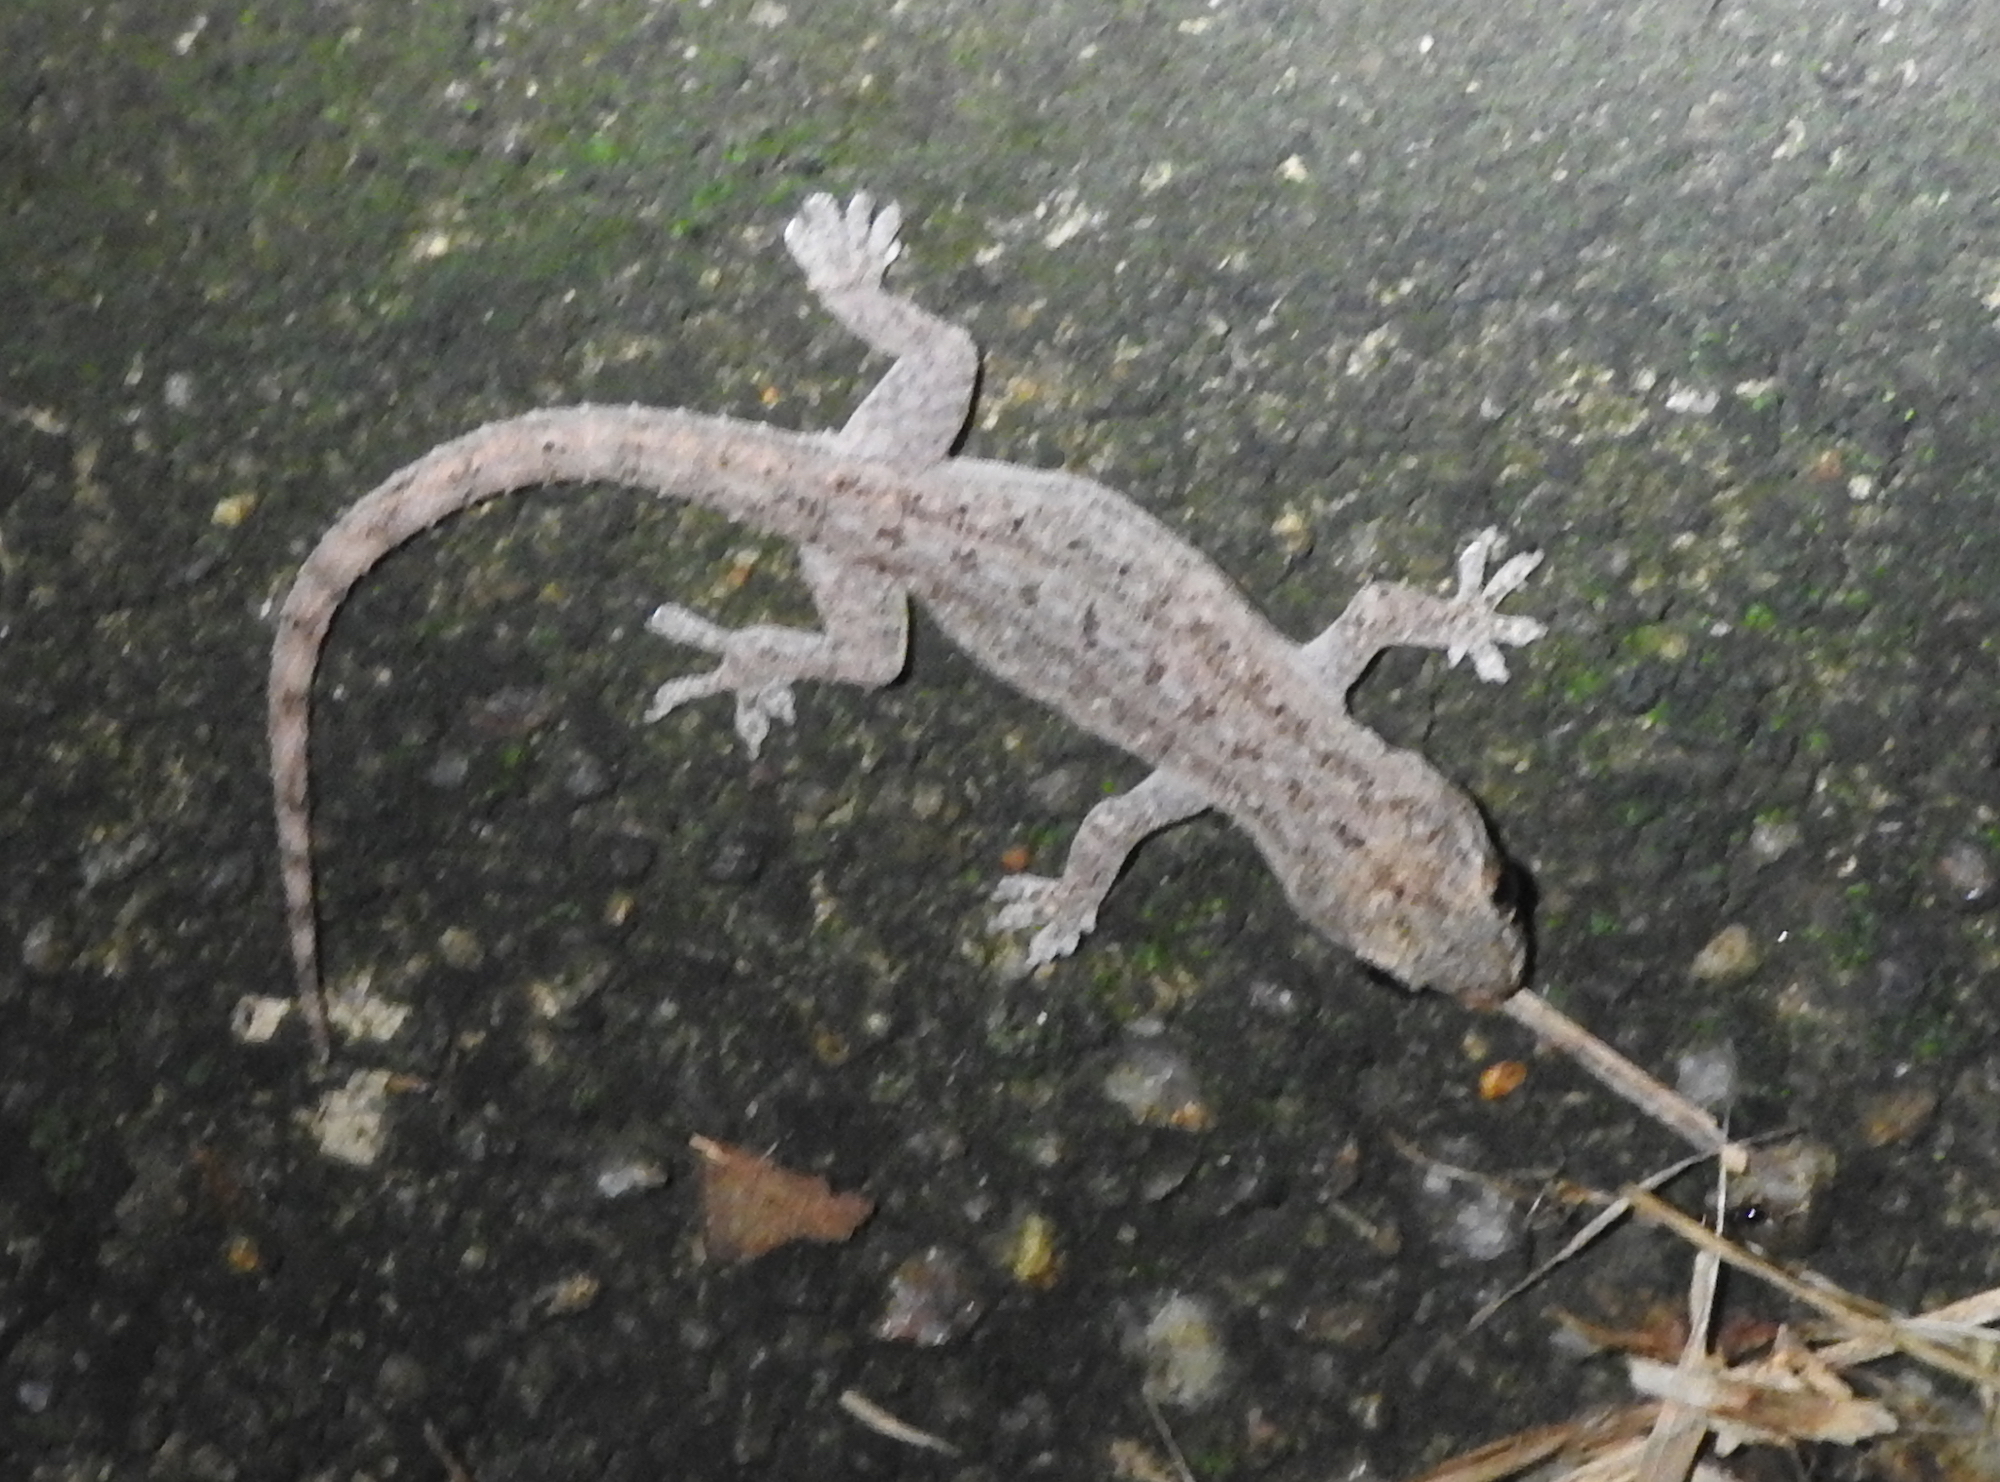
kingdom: Animalia
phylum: Chordata
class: Squamata
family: Gekkonidae
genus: Hemidactylus
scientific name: Hemidactylus frenatus
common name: Common house gecko
